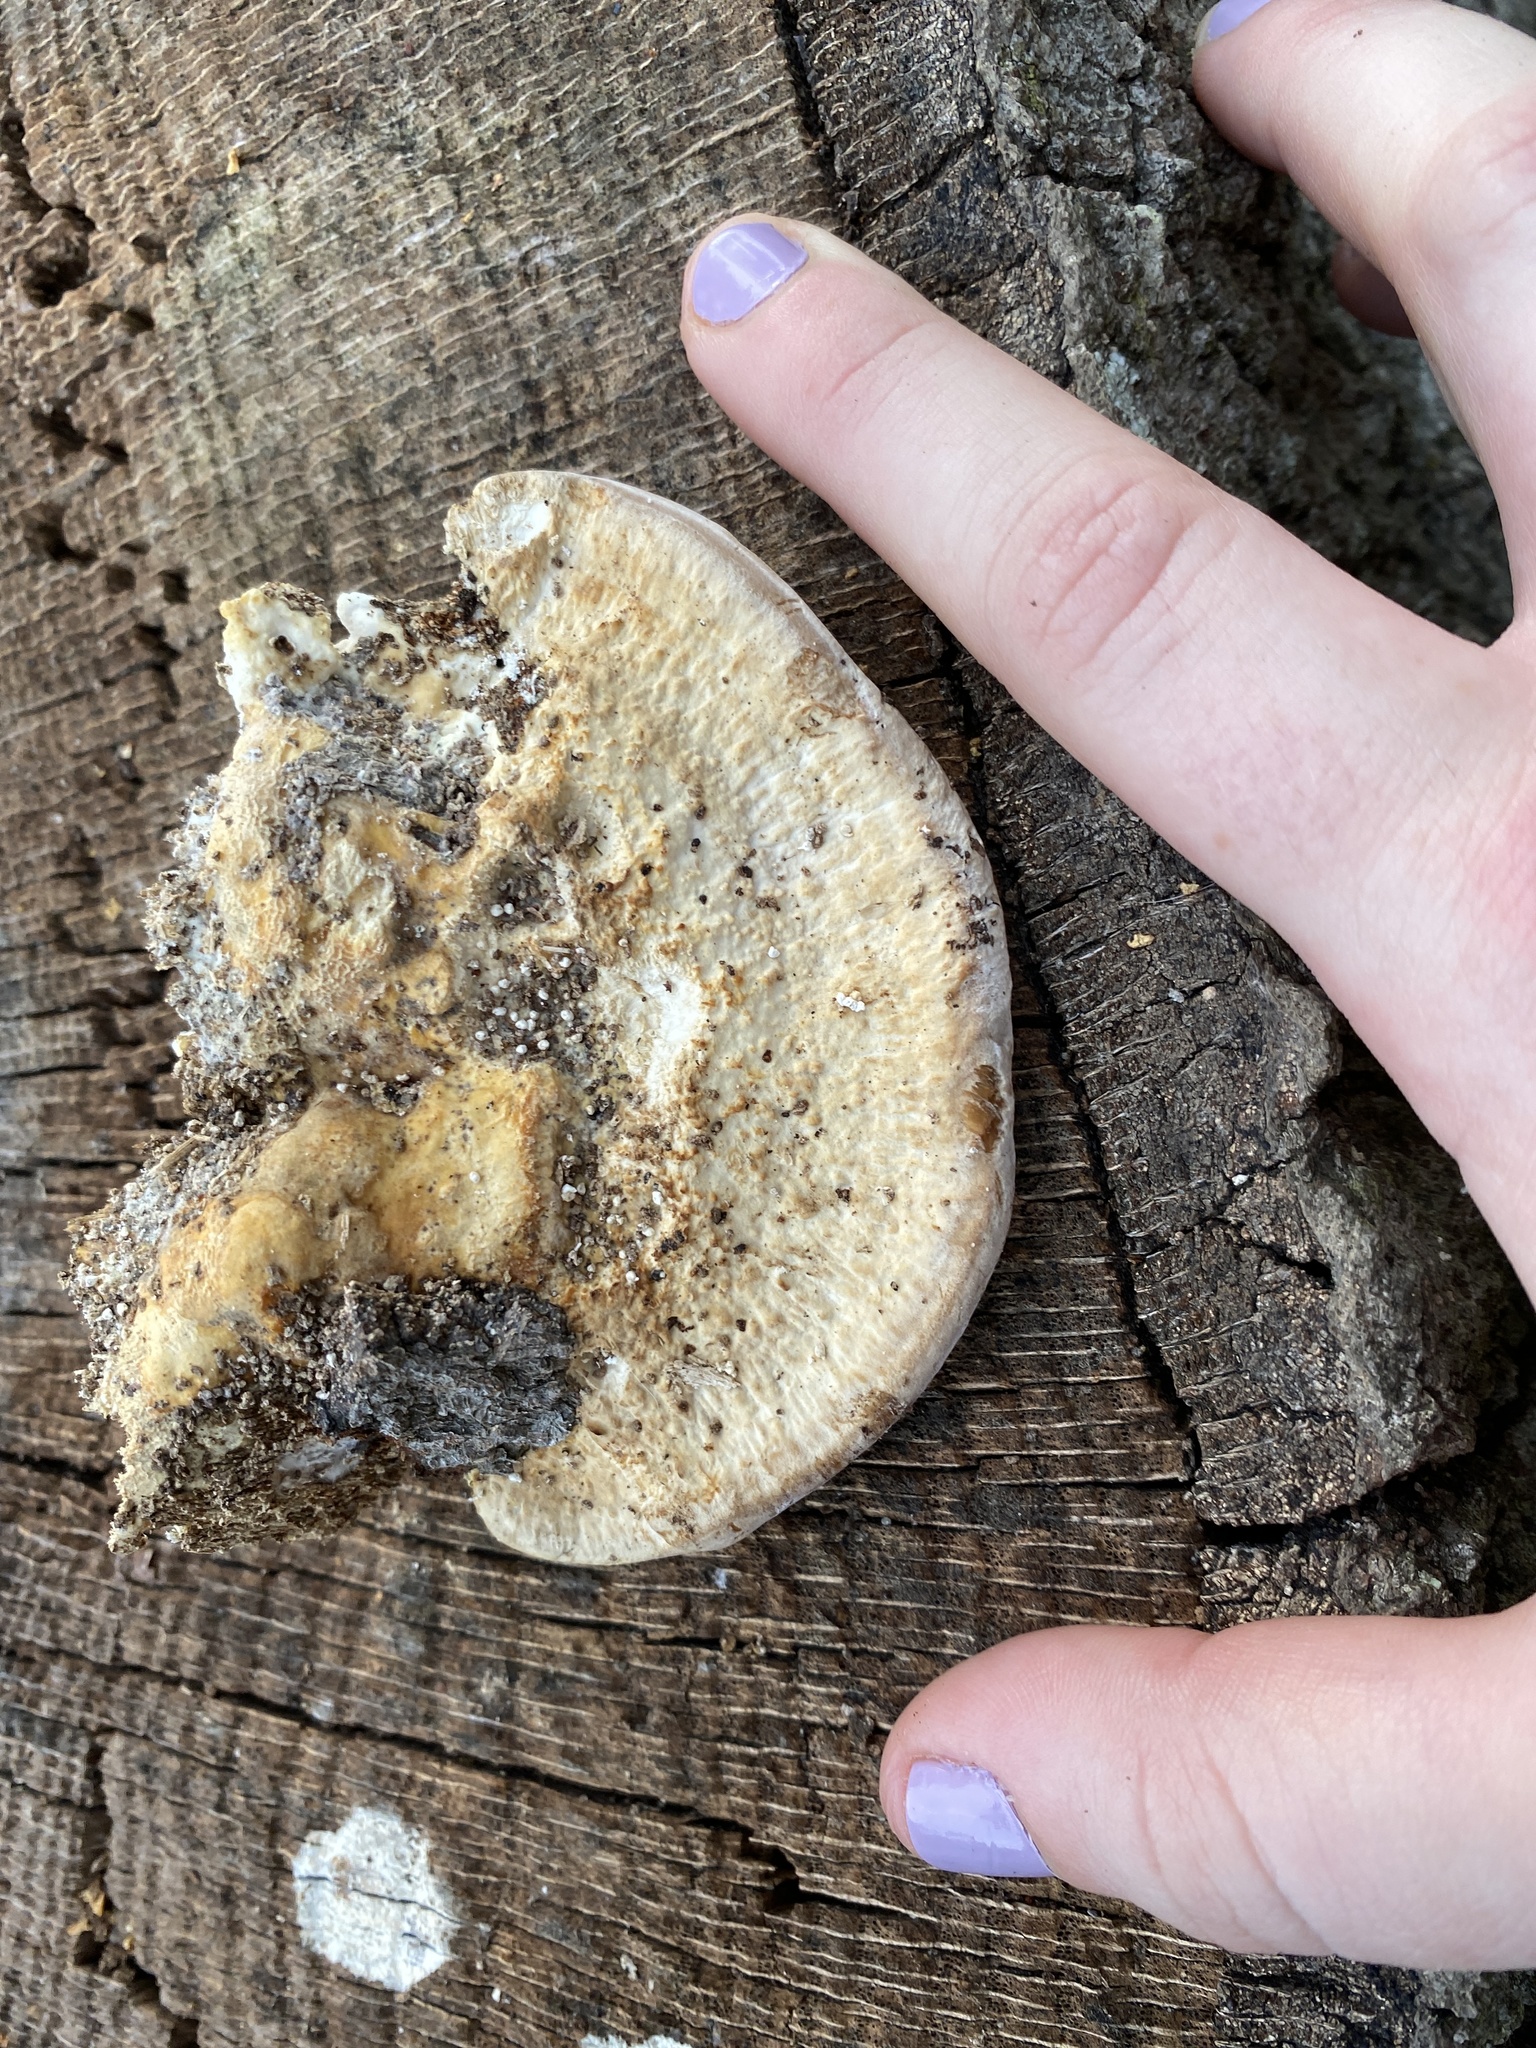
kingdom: Fungi
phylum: Basidiomycota
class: Agaricomycetes
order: Polyporales
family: Polyporaceae
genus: Trametes
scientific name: Trametes lactinea
